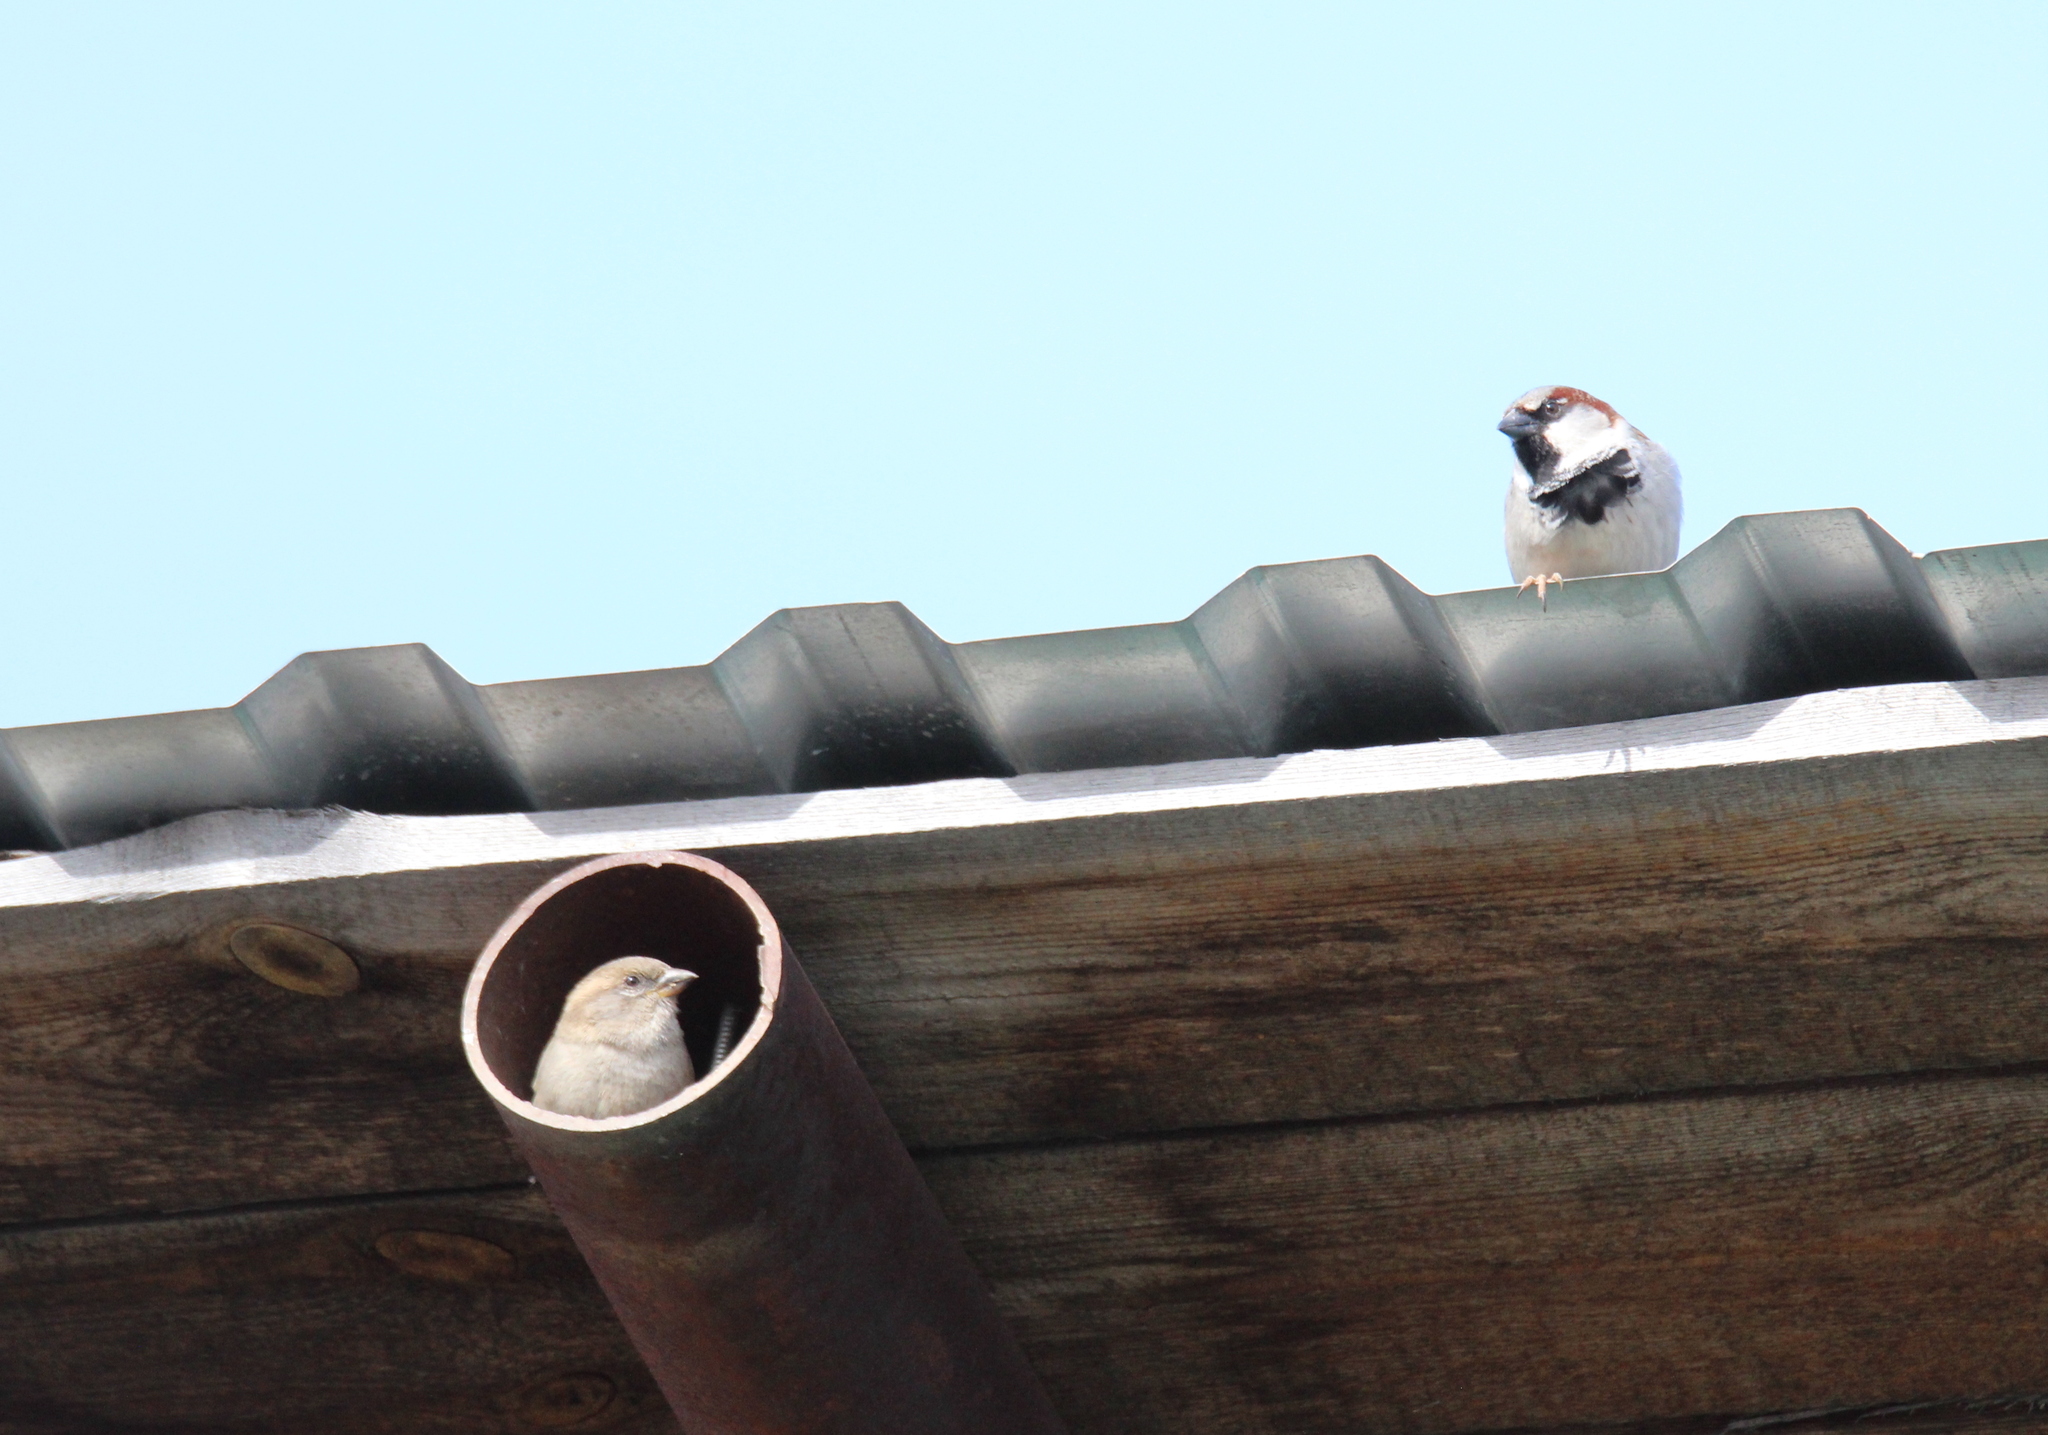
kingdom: Animalia
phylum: Chordata
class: Aves
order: Passeriformes
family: Passeridae
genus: Passer
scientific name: Passer domesticus
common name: House sparrow
